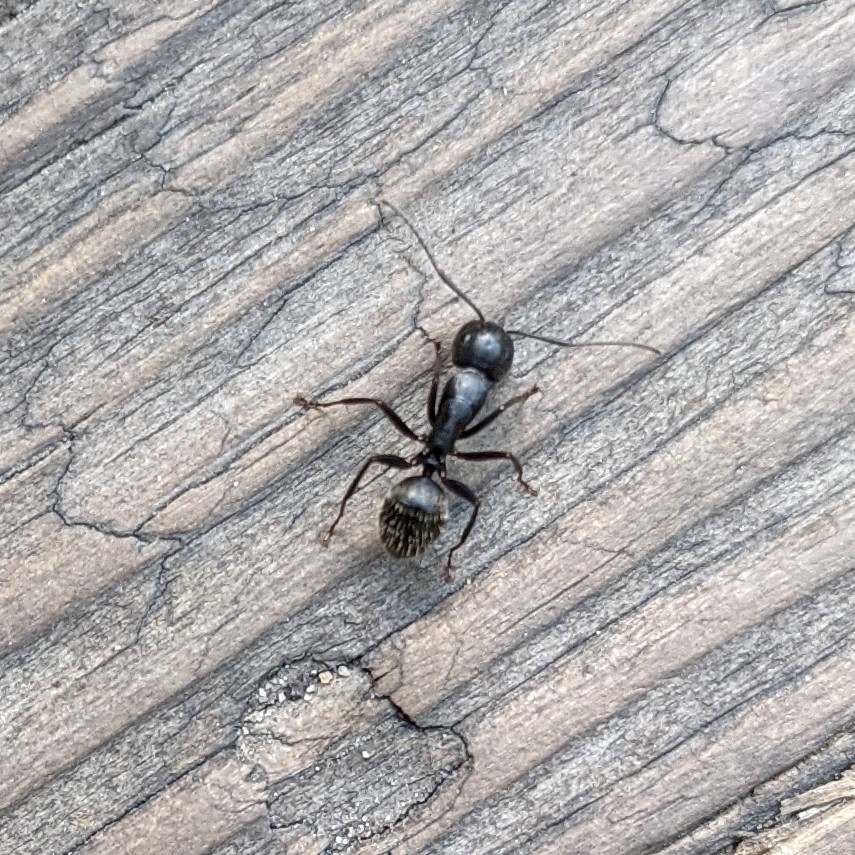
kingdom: Animalia
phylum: Arthropoda
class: Insecta
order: Hymenoptera
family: Formicidae
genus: Camponotus
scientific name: Camponotus pennsylvanicus
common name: Black carpenter ant
